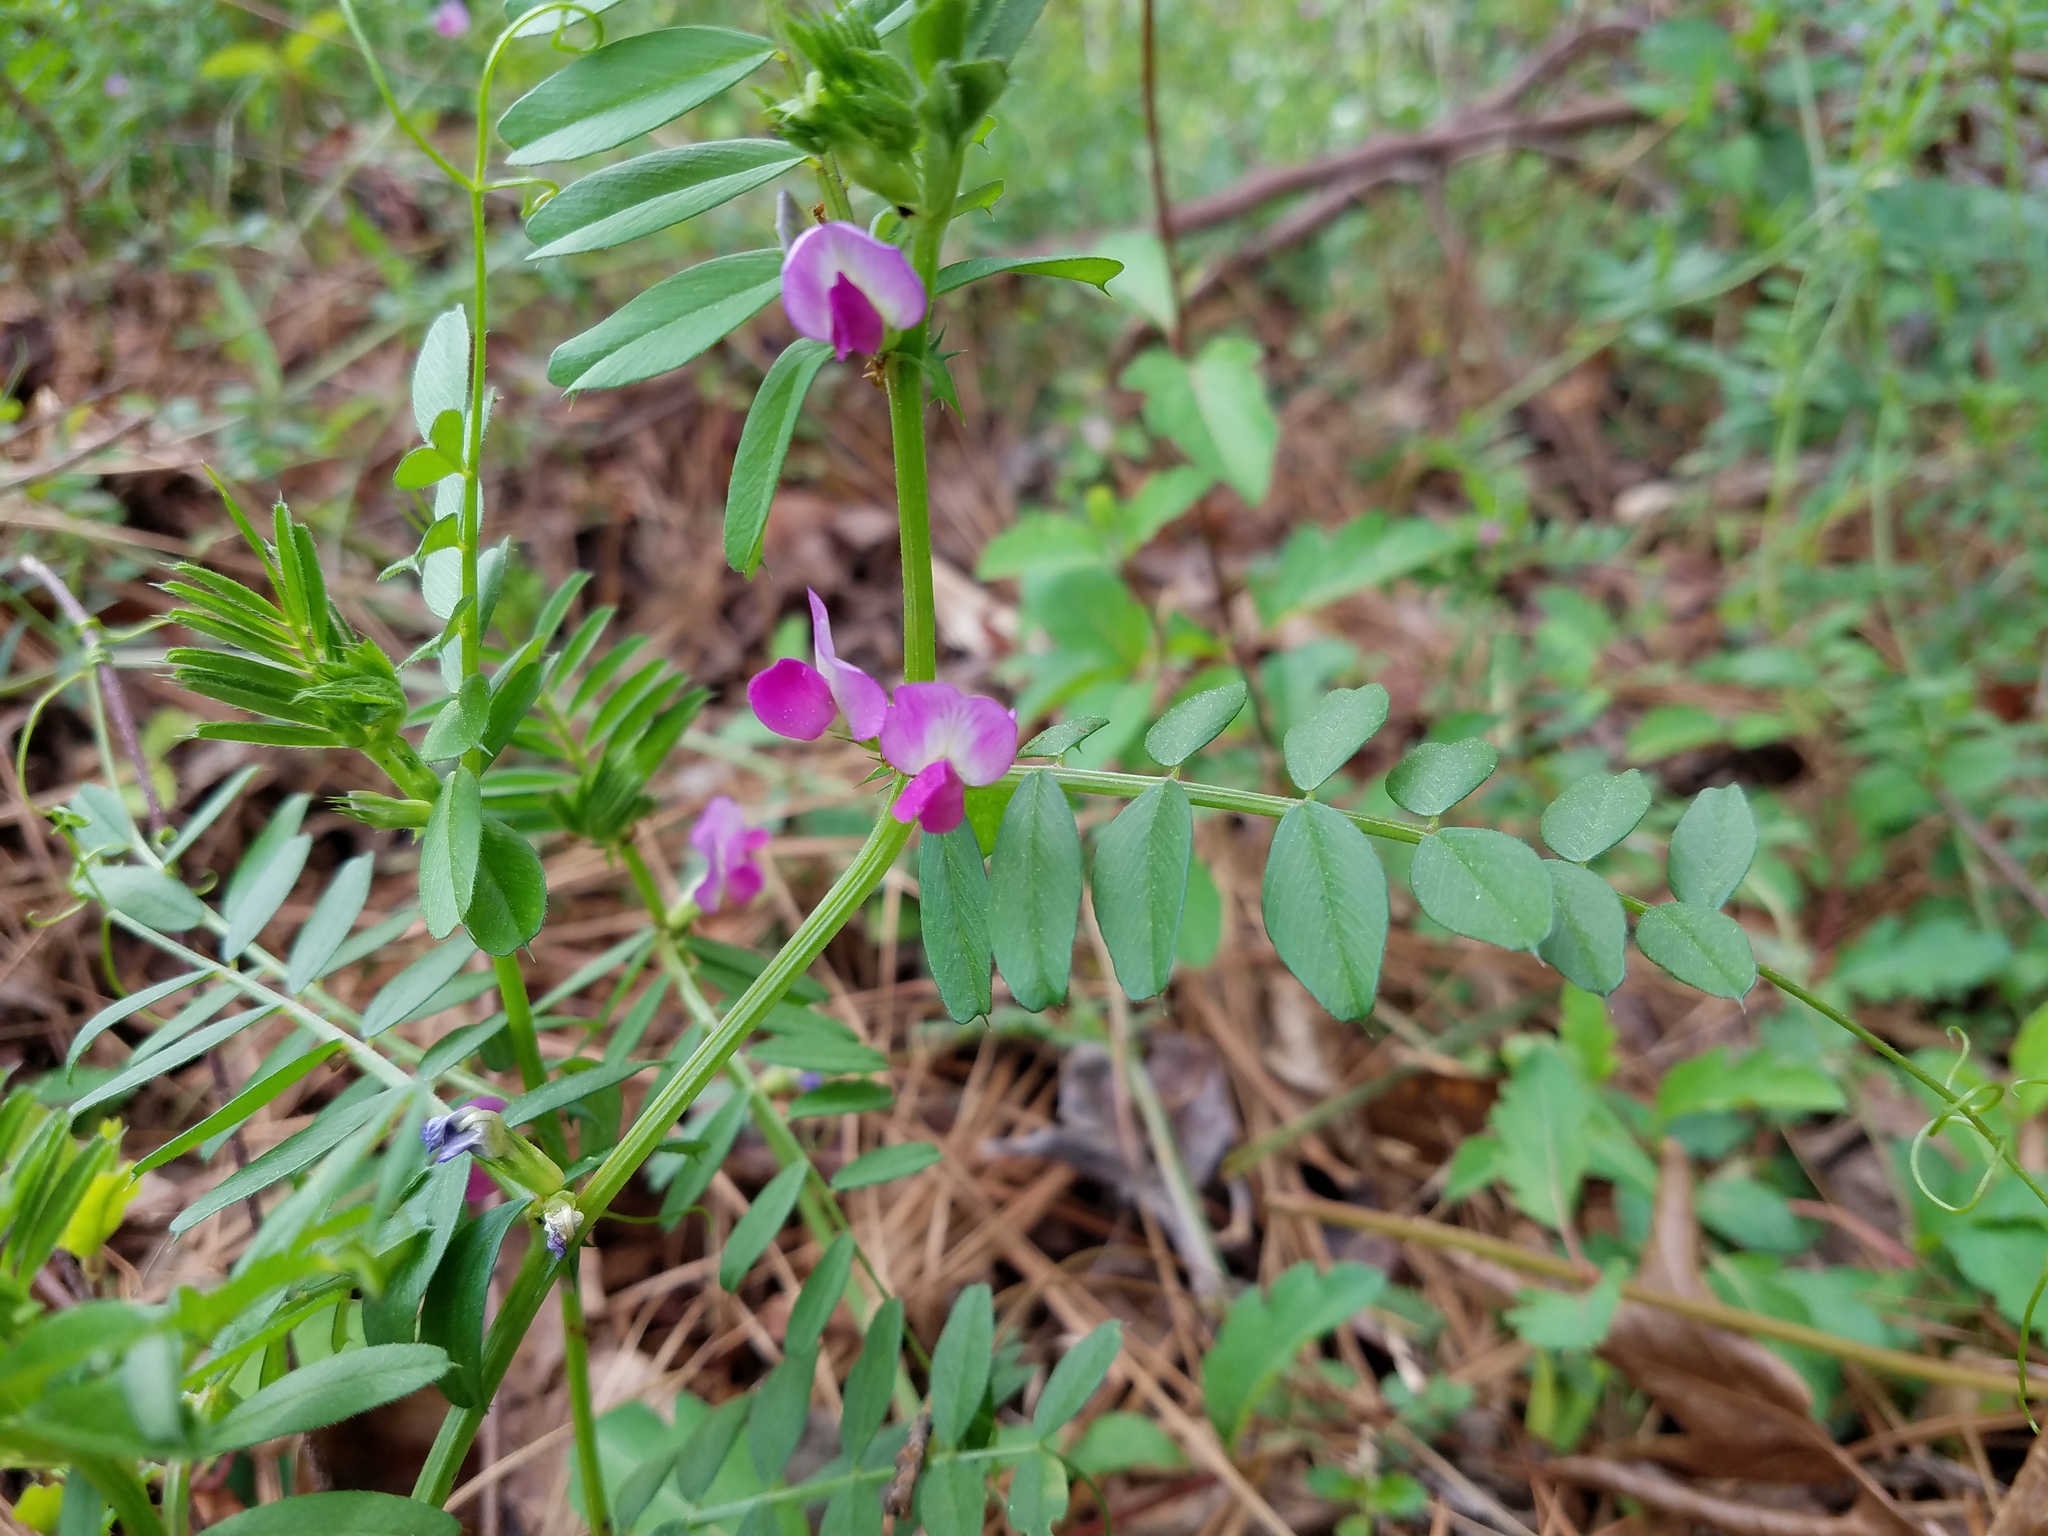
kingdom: Plantae
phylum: Tracheophyta
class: Magnoliopsida
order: Fabales
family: Fabaceae
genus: Vicia
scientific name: Vicia sativa
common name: Garden vetch
